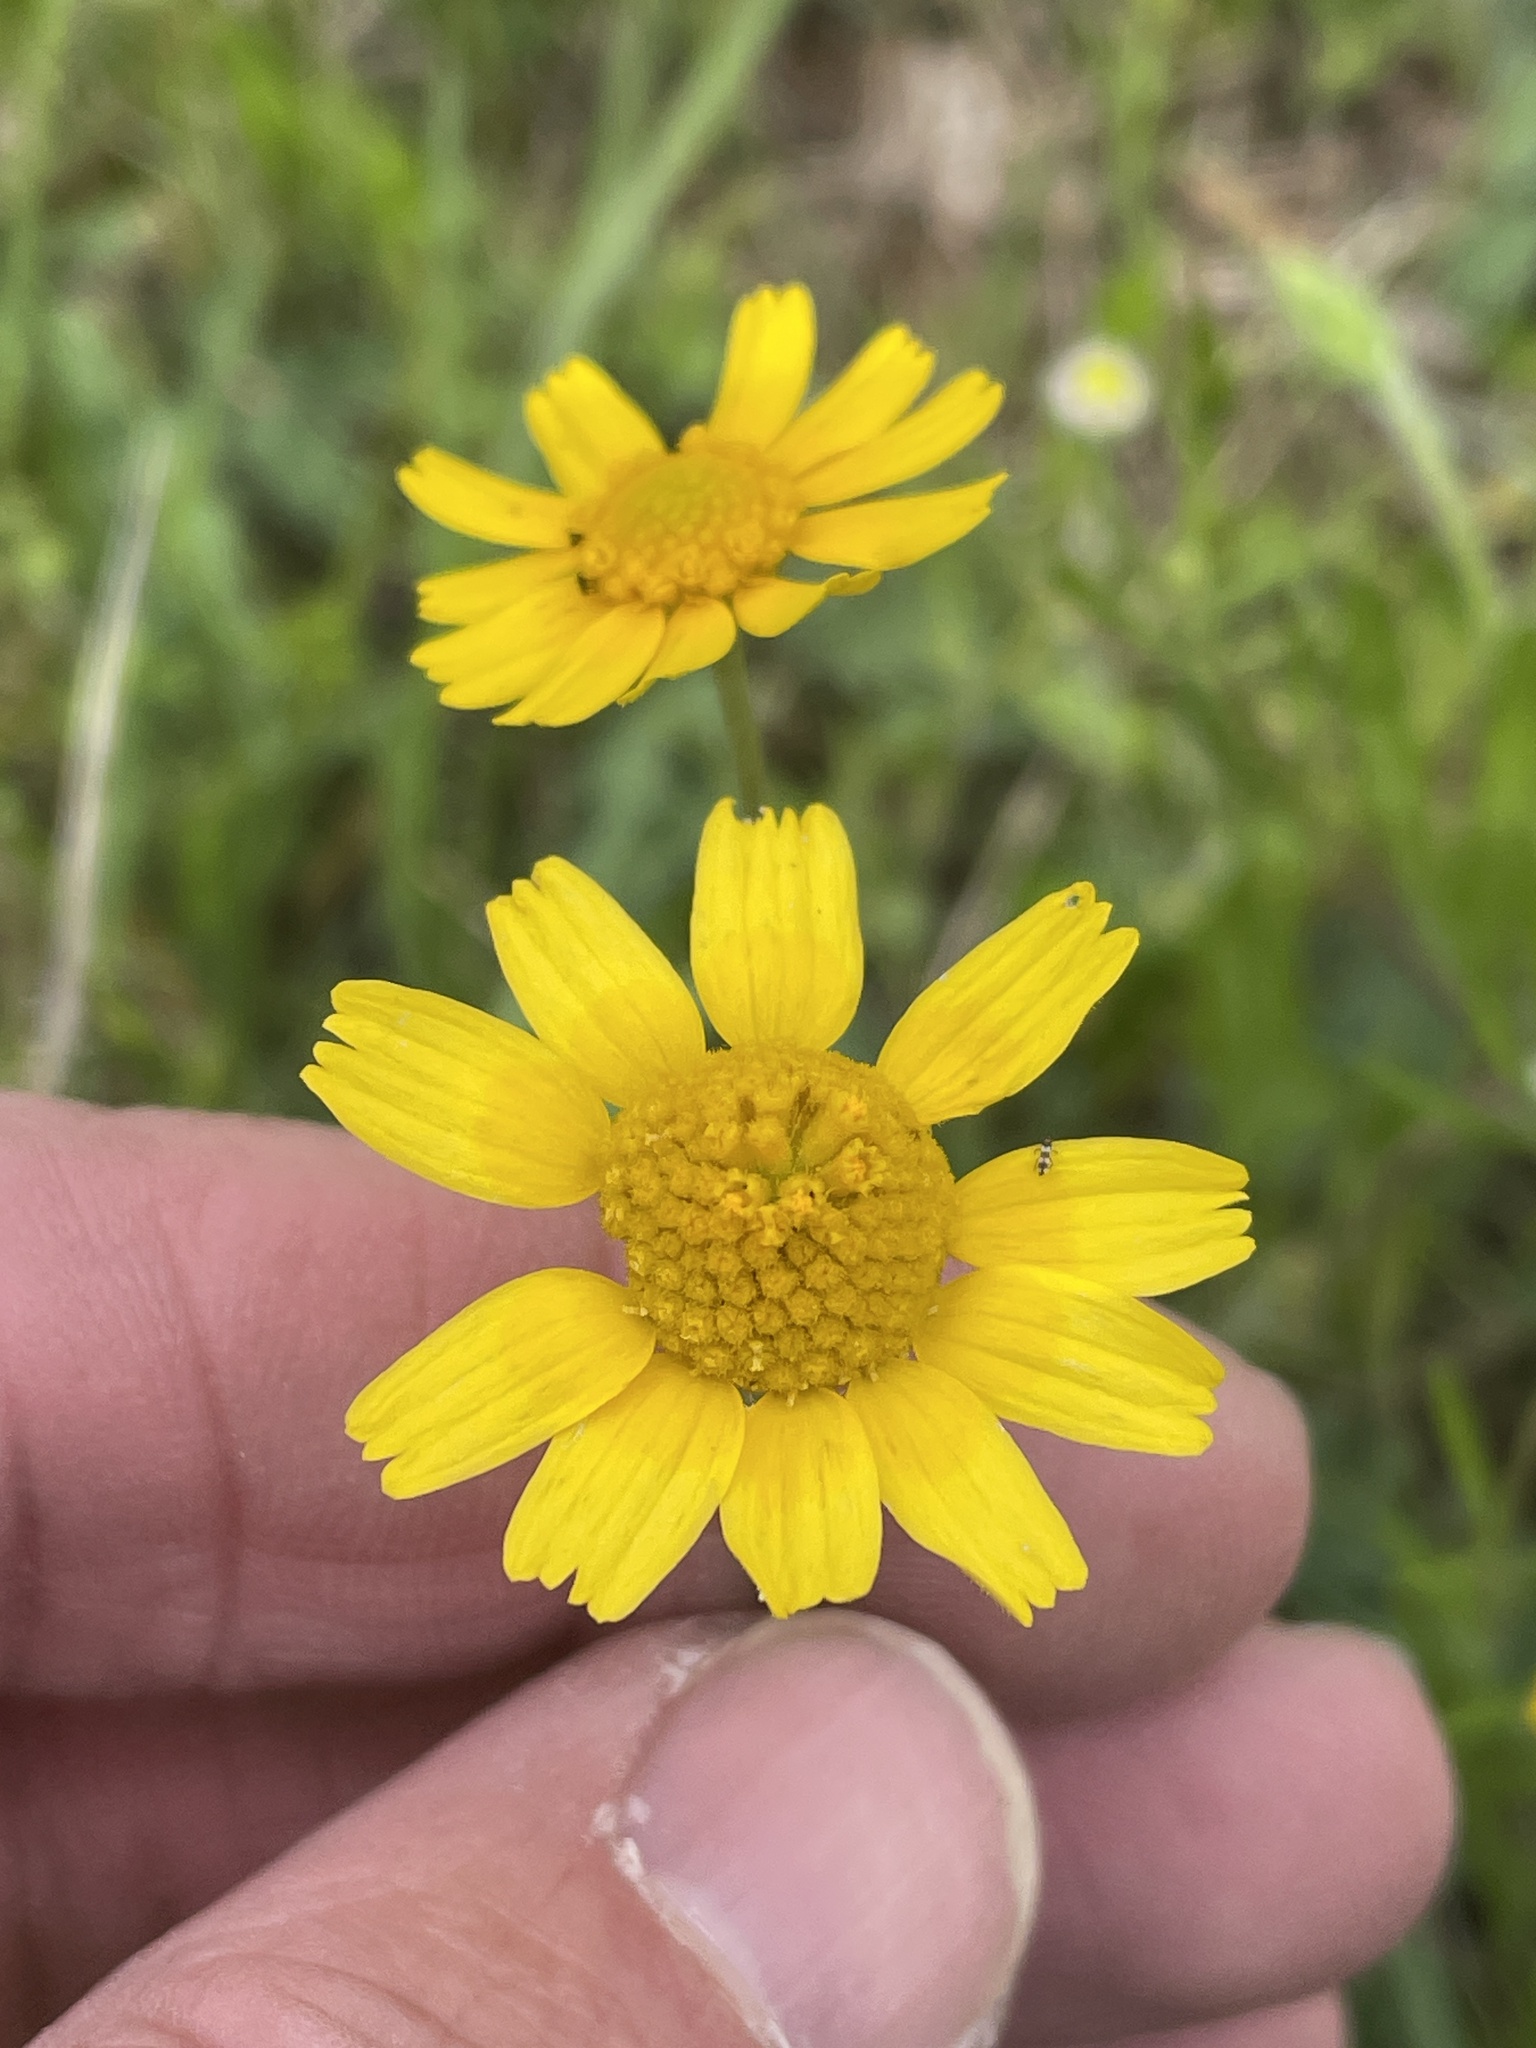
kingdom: Plantae
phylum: Tracheophyta
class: Magnoliopsida
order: Asterales
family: Asteraceae
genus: Tetraneuris
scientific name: Tetraneuris linearifolia
